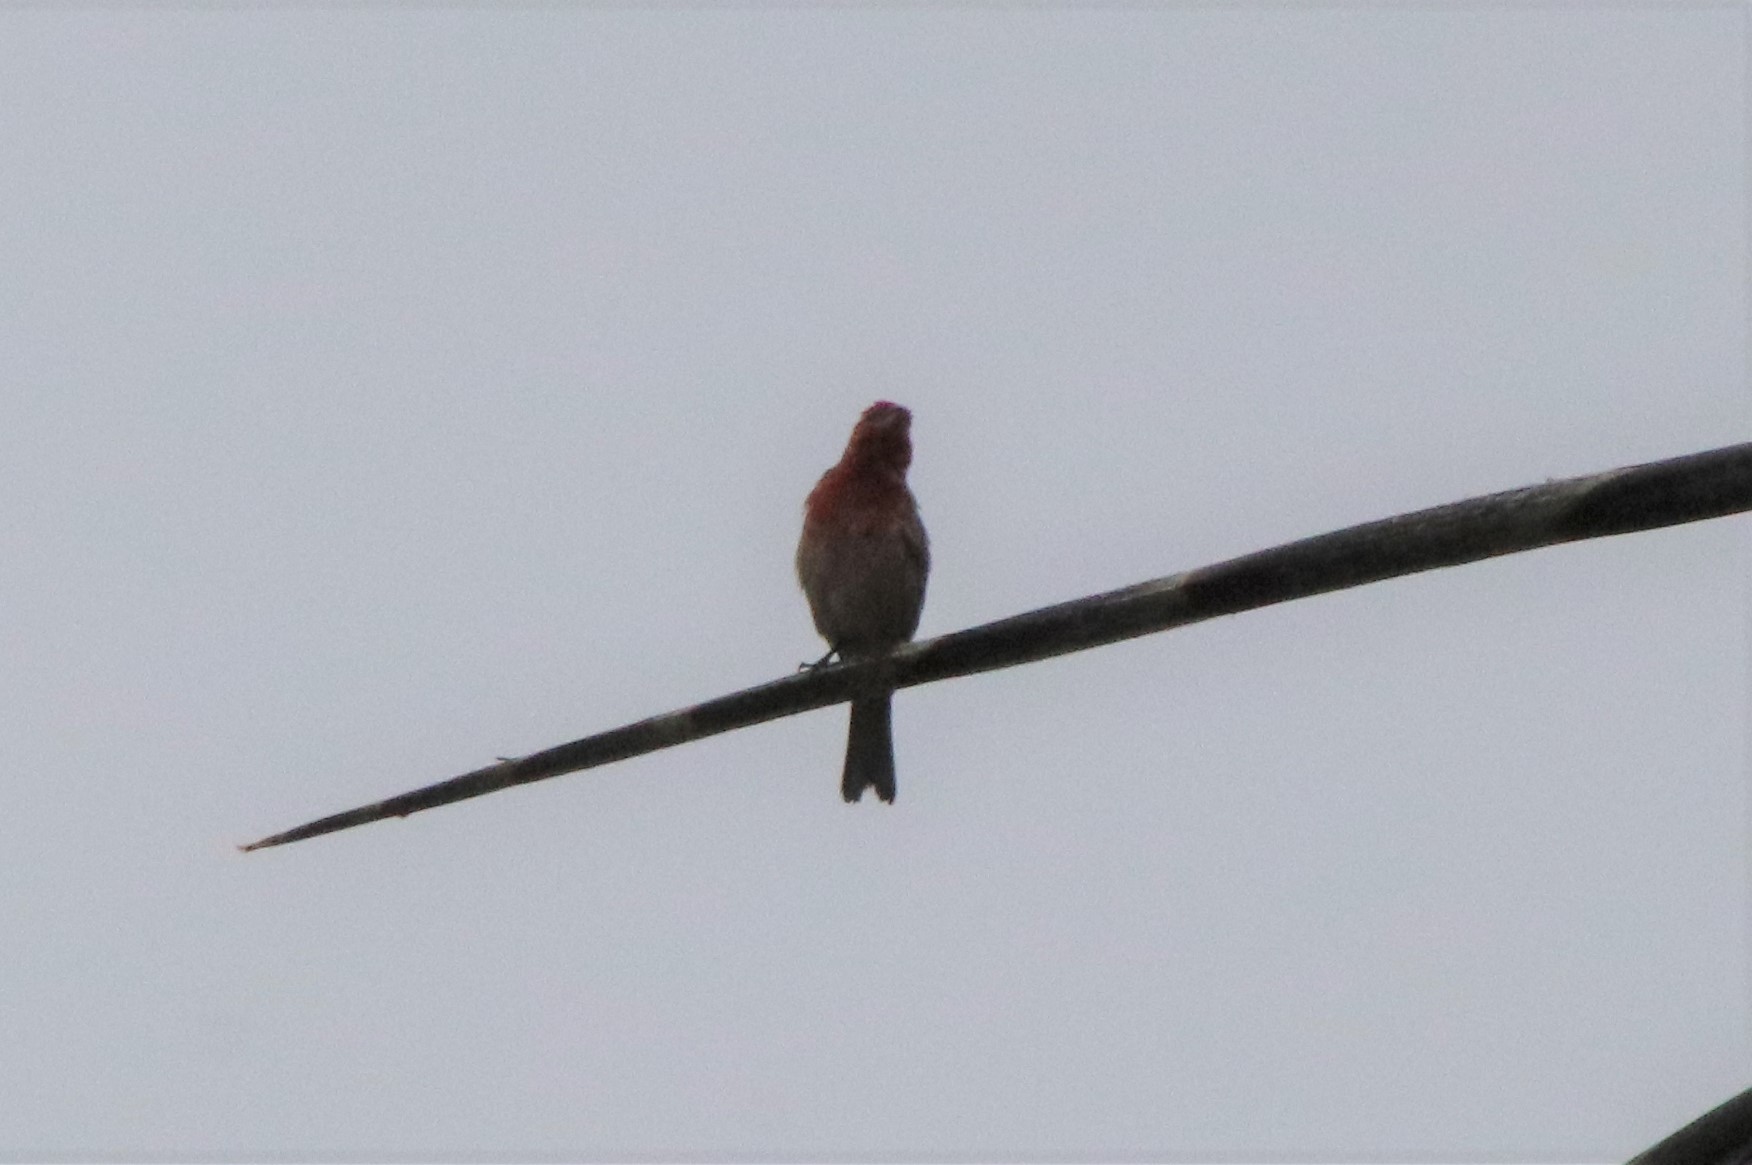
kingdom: Animalia
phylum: Chordata
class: Aves
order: Passeriformes
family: Fringillidae
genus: Haemorhous
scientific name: Haemorhous mexicanus
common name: House finch
